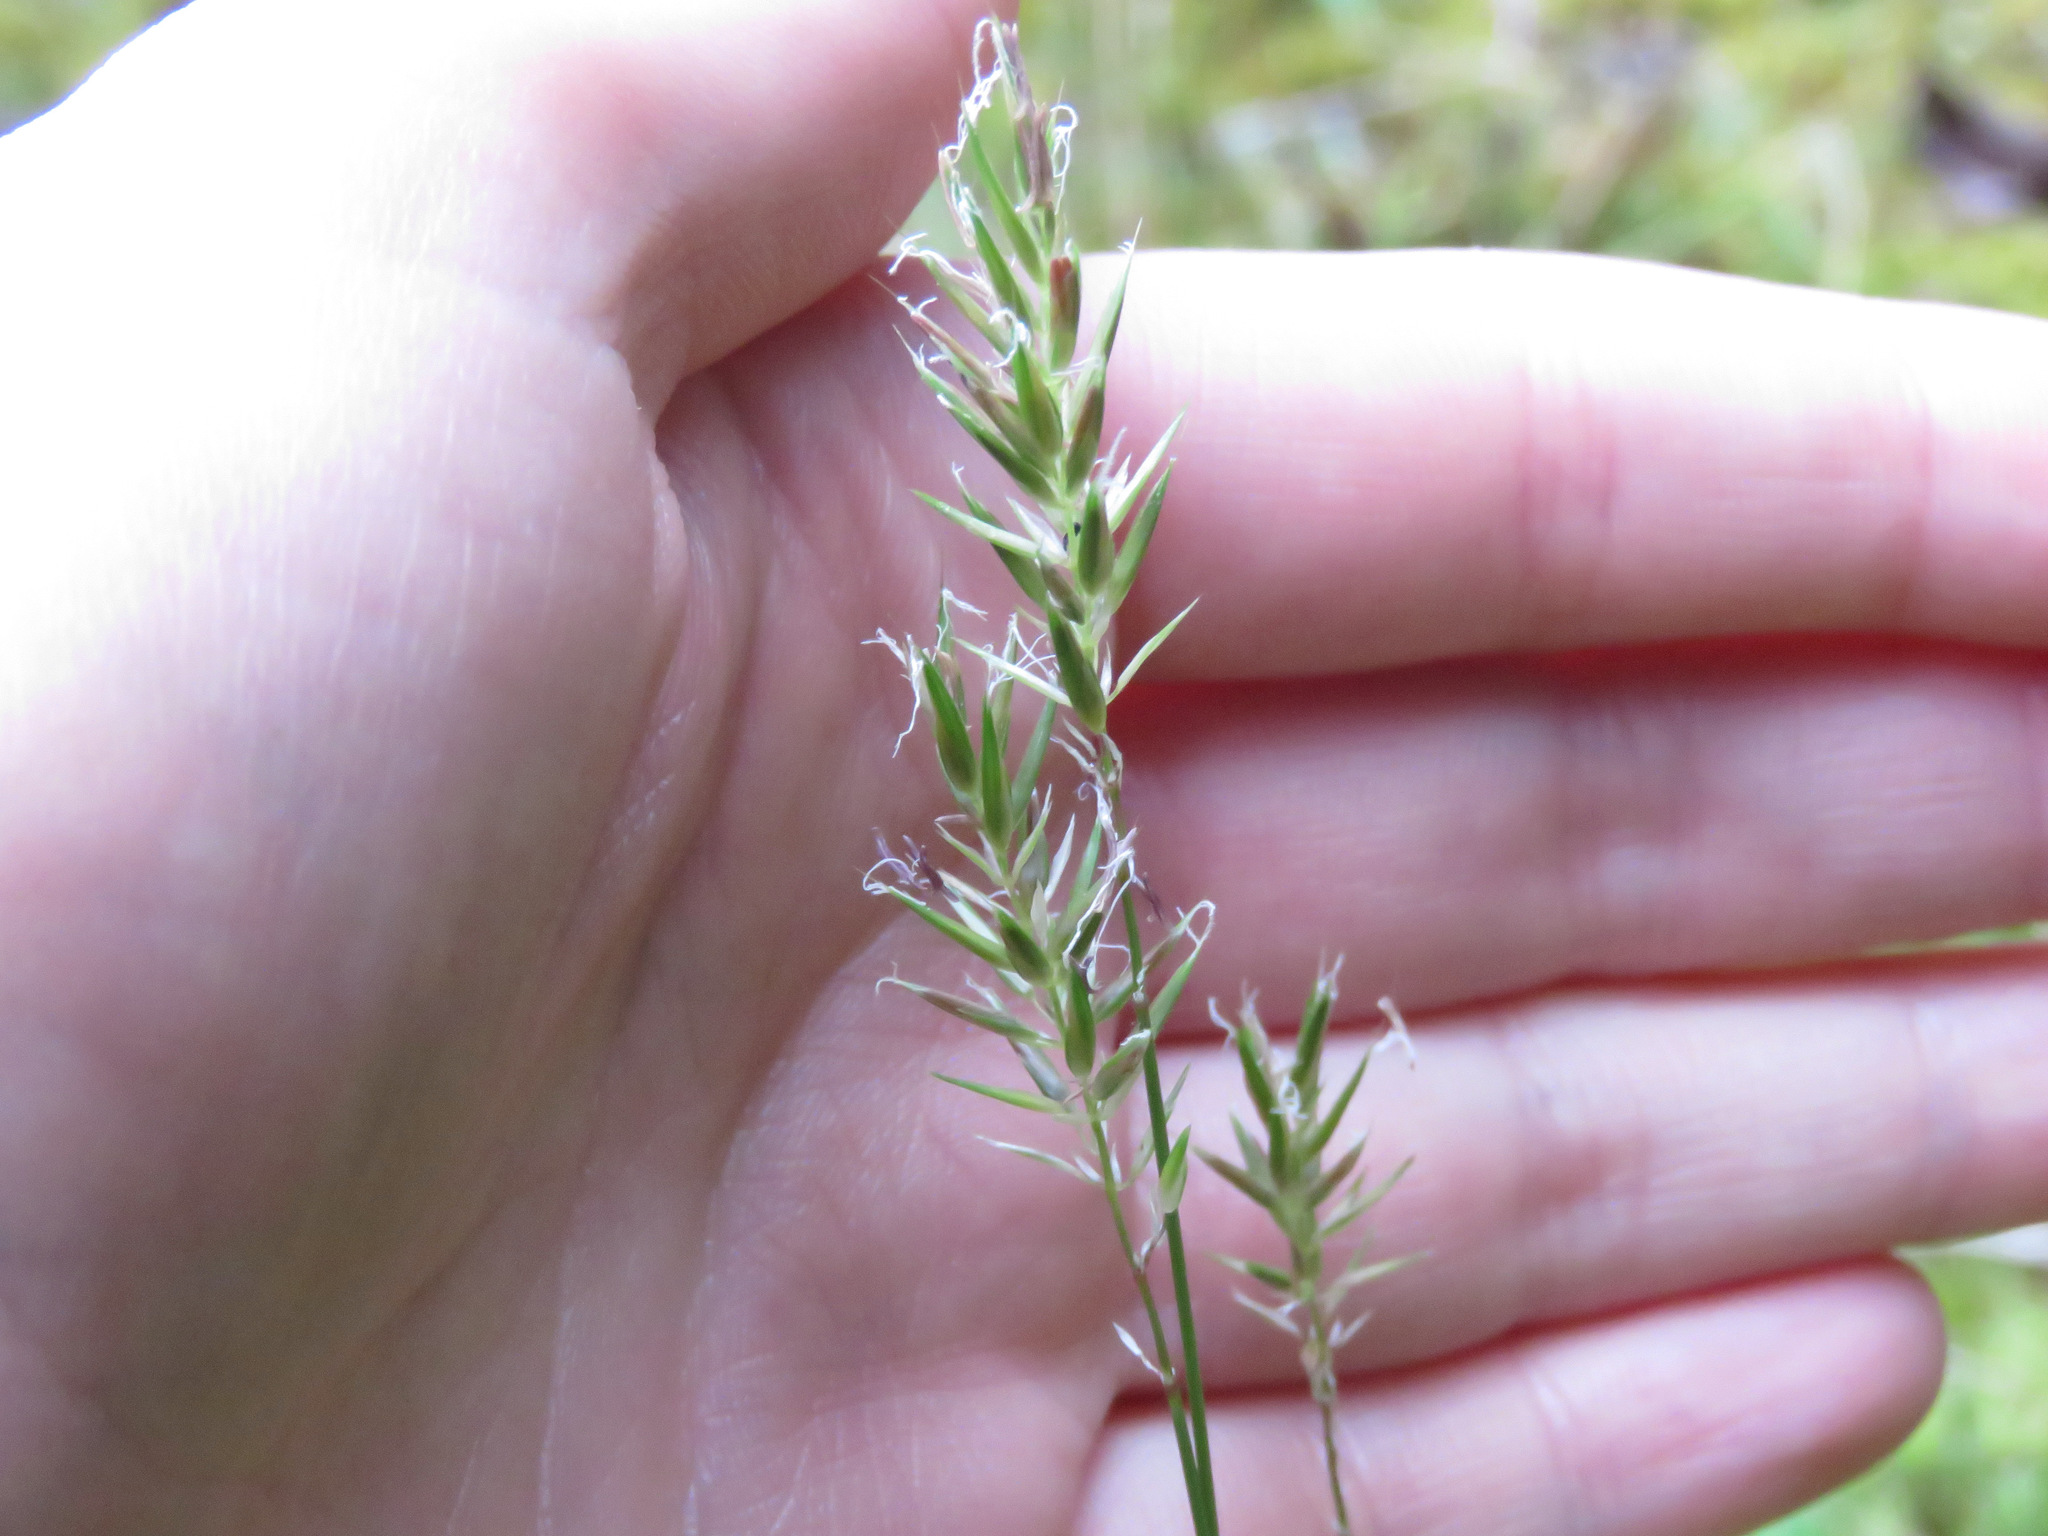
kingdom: Plantae
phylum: Tracheophyta
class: Liliopsida
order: Poales
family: Poaceae
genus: Anthoxanthum
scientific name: Anthoxanthum odoratum
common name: Sweet vernalgrass
